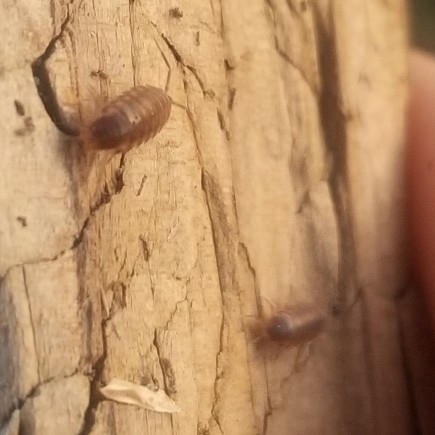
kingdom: Animalia
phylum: Arthropoda
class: Malacostraca
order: Isopoda
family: Halophilosciidae
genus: Littorophiloscia
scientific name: Littorophiloscia richardsonae
